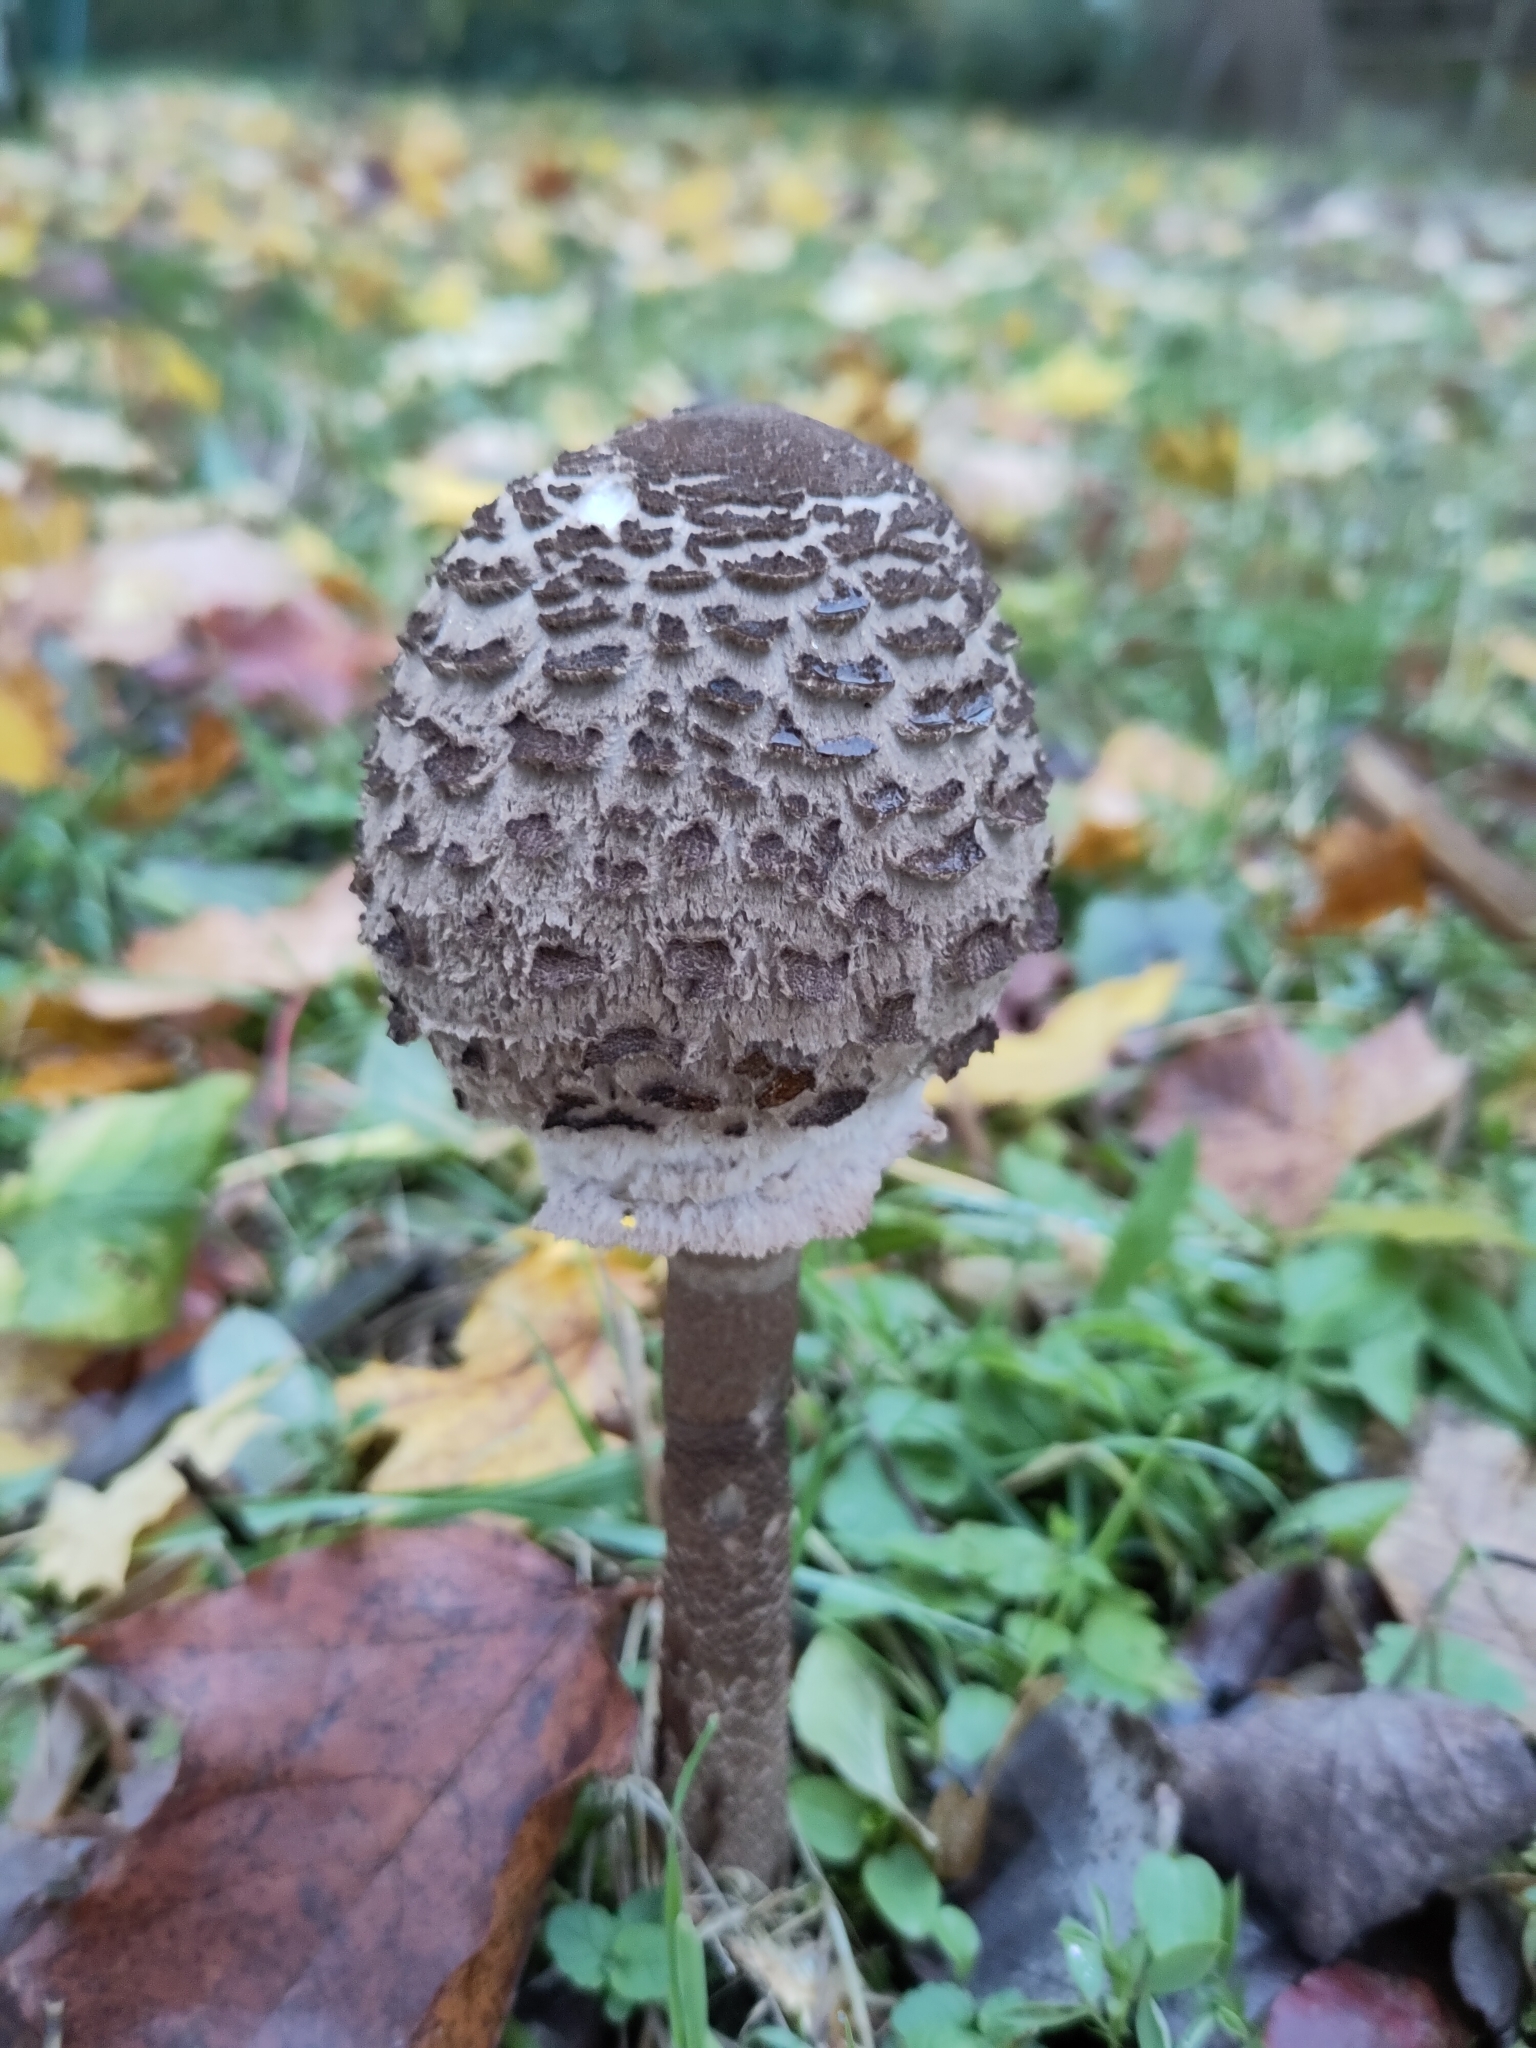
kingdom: Fungi
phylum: Basidiomycota
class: Agaricomycetes
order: Agaricales
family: Agaricaceae
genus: Macrolepiota
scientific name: Macrolepiota procera
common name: Parasol
